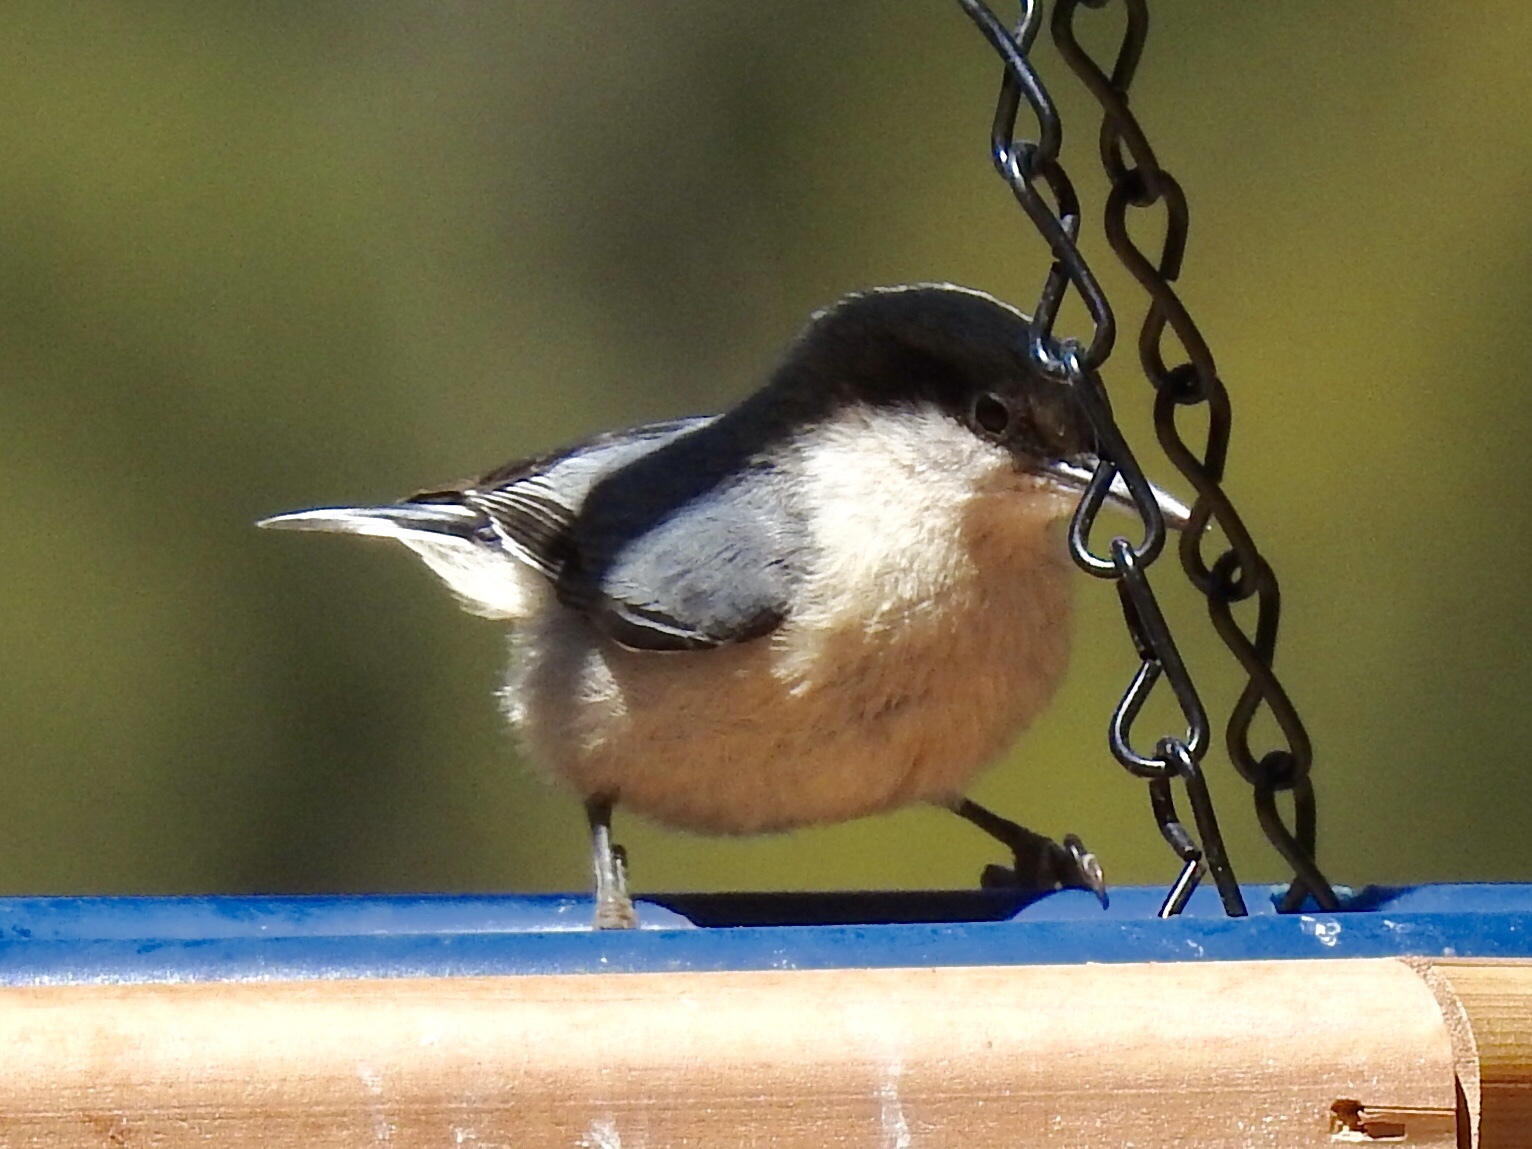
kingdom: Animalia
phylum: Chordata
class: Aves
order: Passeriformes
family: Sittidae
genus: Sitta
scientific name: Sitta pygmaea
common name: Pygmy nuthatch
